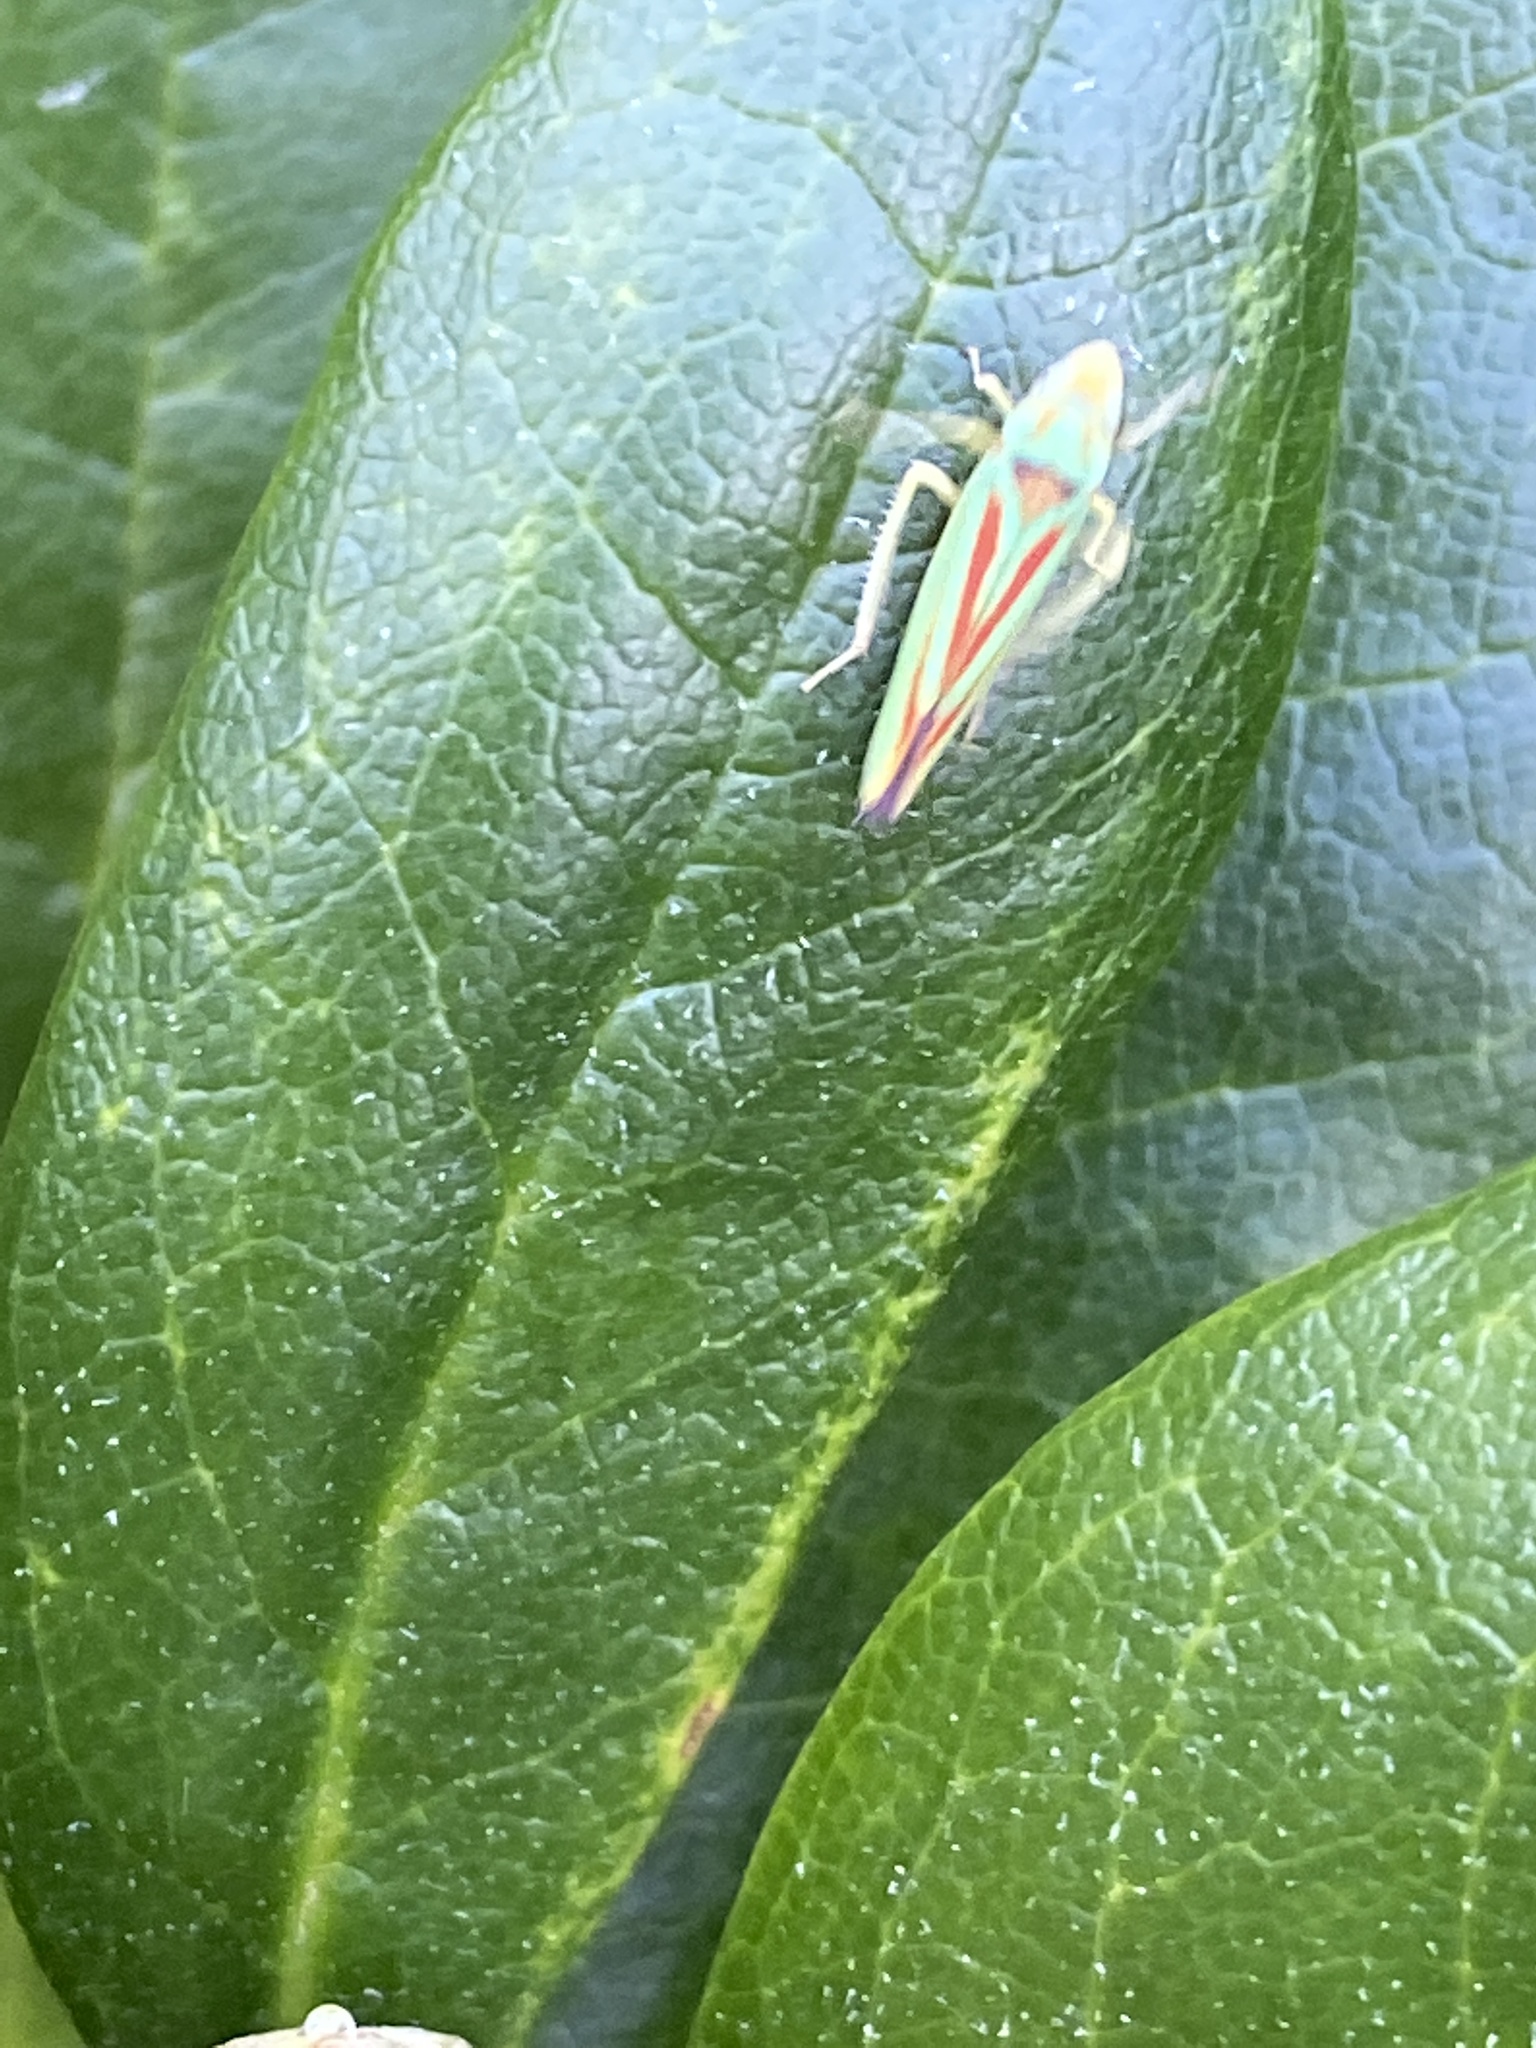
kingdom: Animalia
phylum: Arthropoda
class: Insecta
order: Hemiptera
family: Cicadellidae
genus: Graphocephala
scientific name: Graphocephala fennahi
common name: Rhododendron leafhopper
